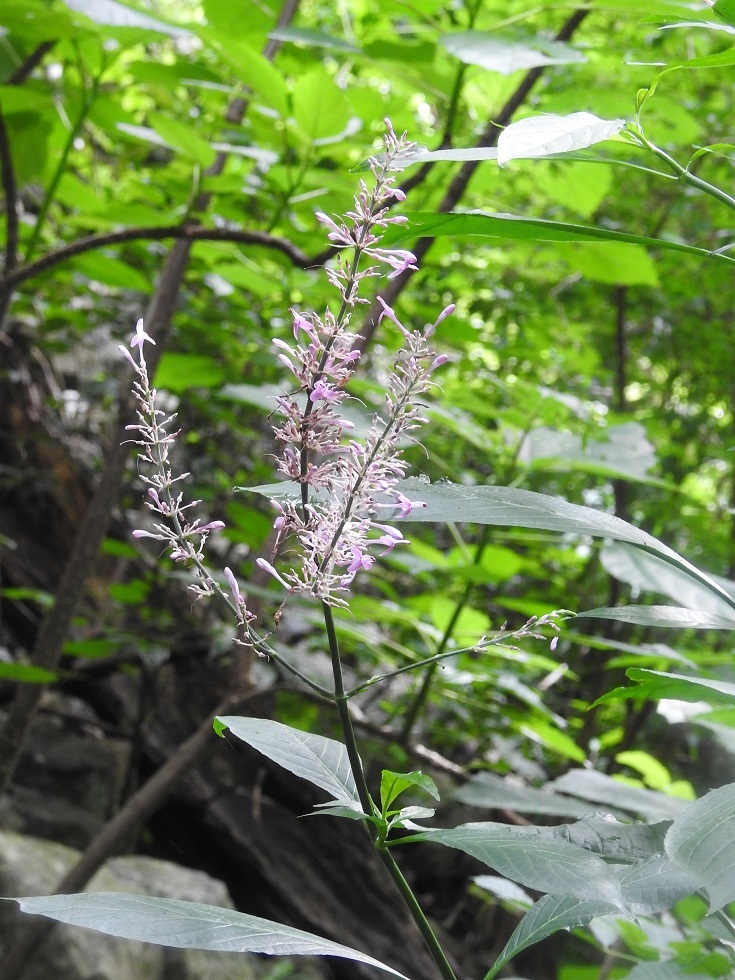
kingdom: Plantae
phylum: Tracheophyta
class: Magnoliopsida
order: Lamiales
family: Acanthaceae
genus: Odontonema
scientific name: Odontonema callistachyum
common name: Firespike
